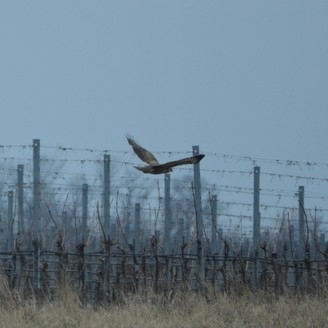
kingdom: Animalia
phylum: Chordata
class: Aves
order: Accipitriformes
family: Accipitridae
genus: Buteo
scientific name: Buteo buteo
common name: Common buzzard
